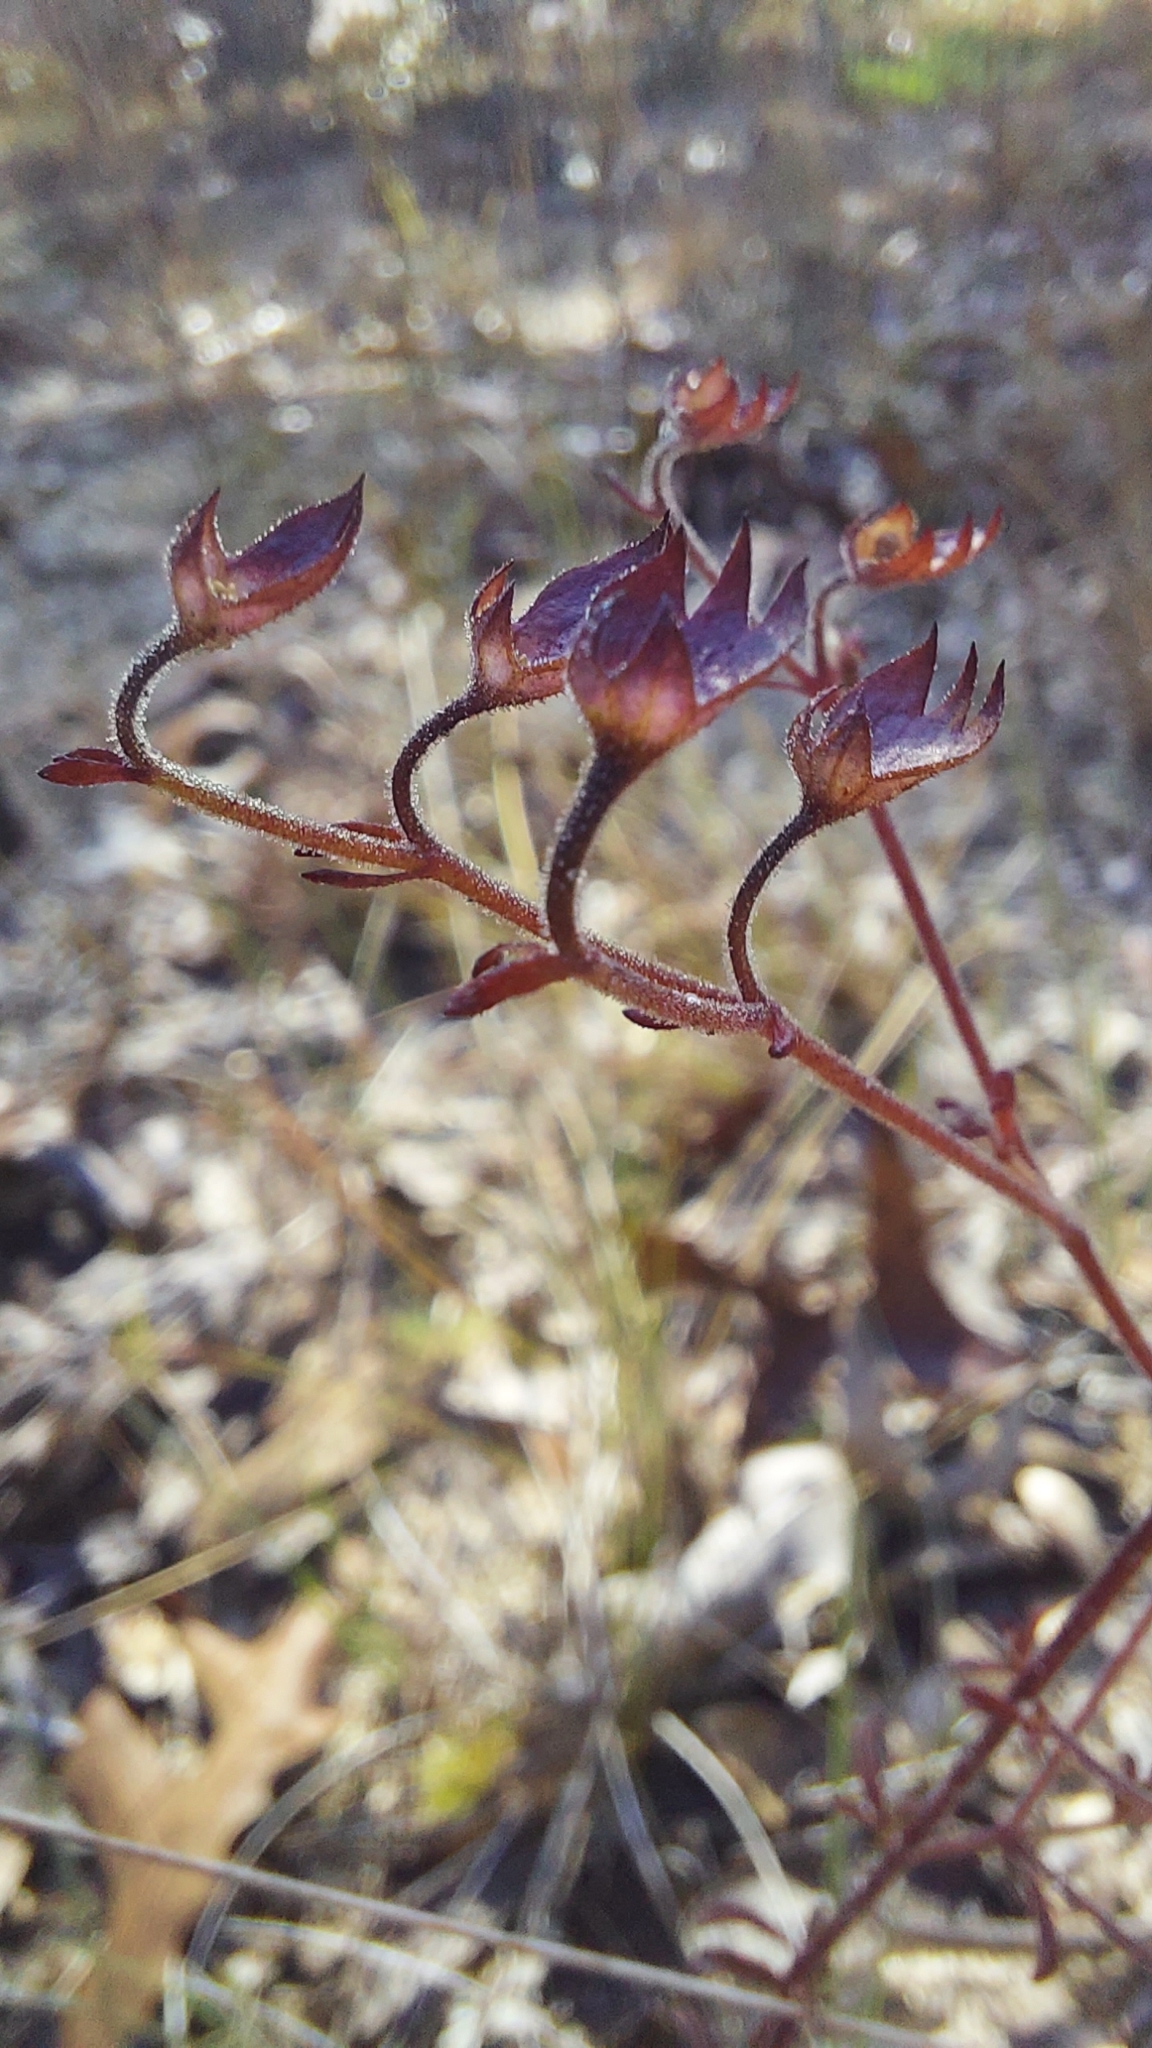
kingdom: Plantae
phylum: Tracheophyta
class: Magnoliopsida
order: Lamiales
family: Lamiaceae
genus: Trichostema
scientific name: Trichostema microphyllum
